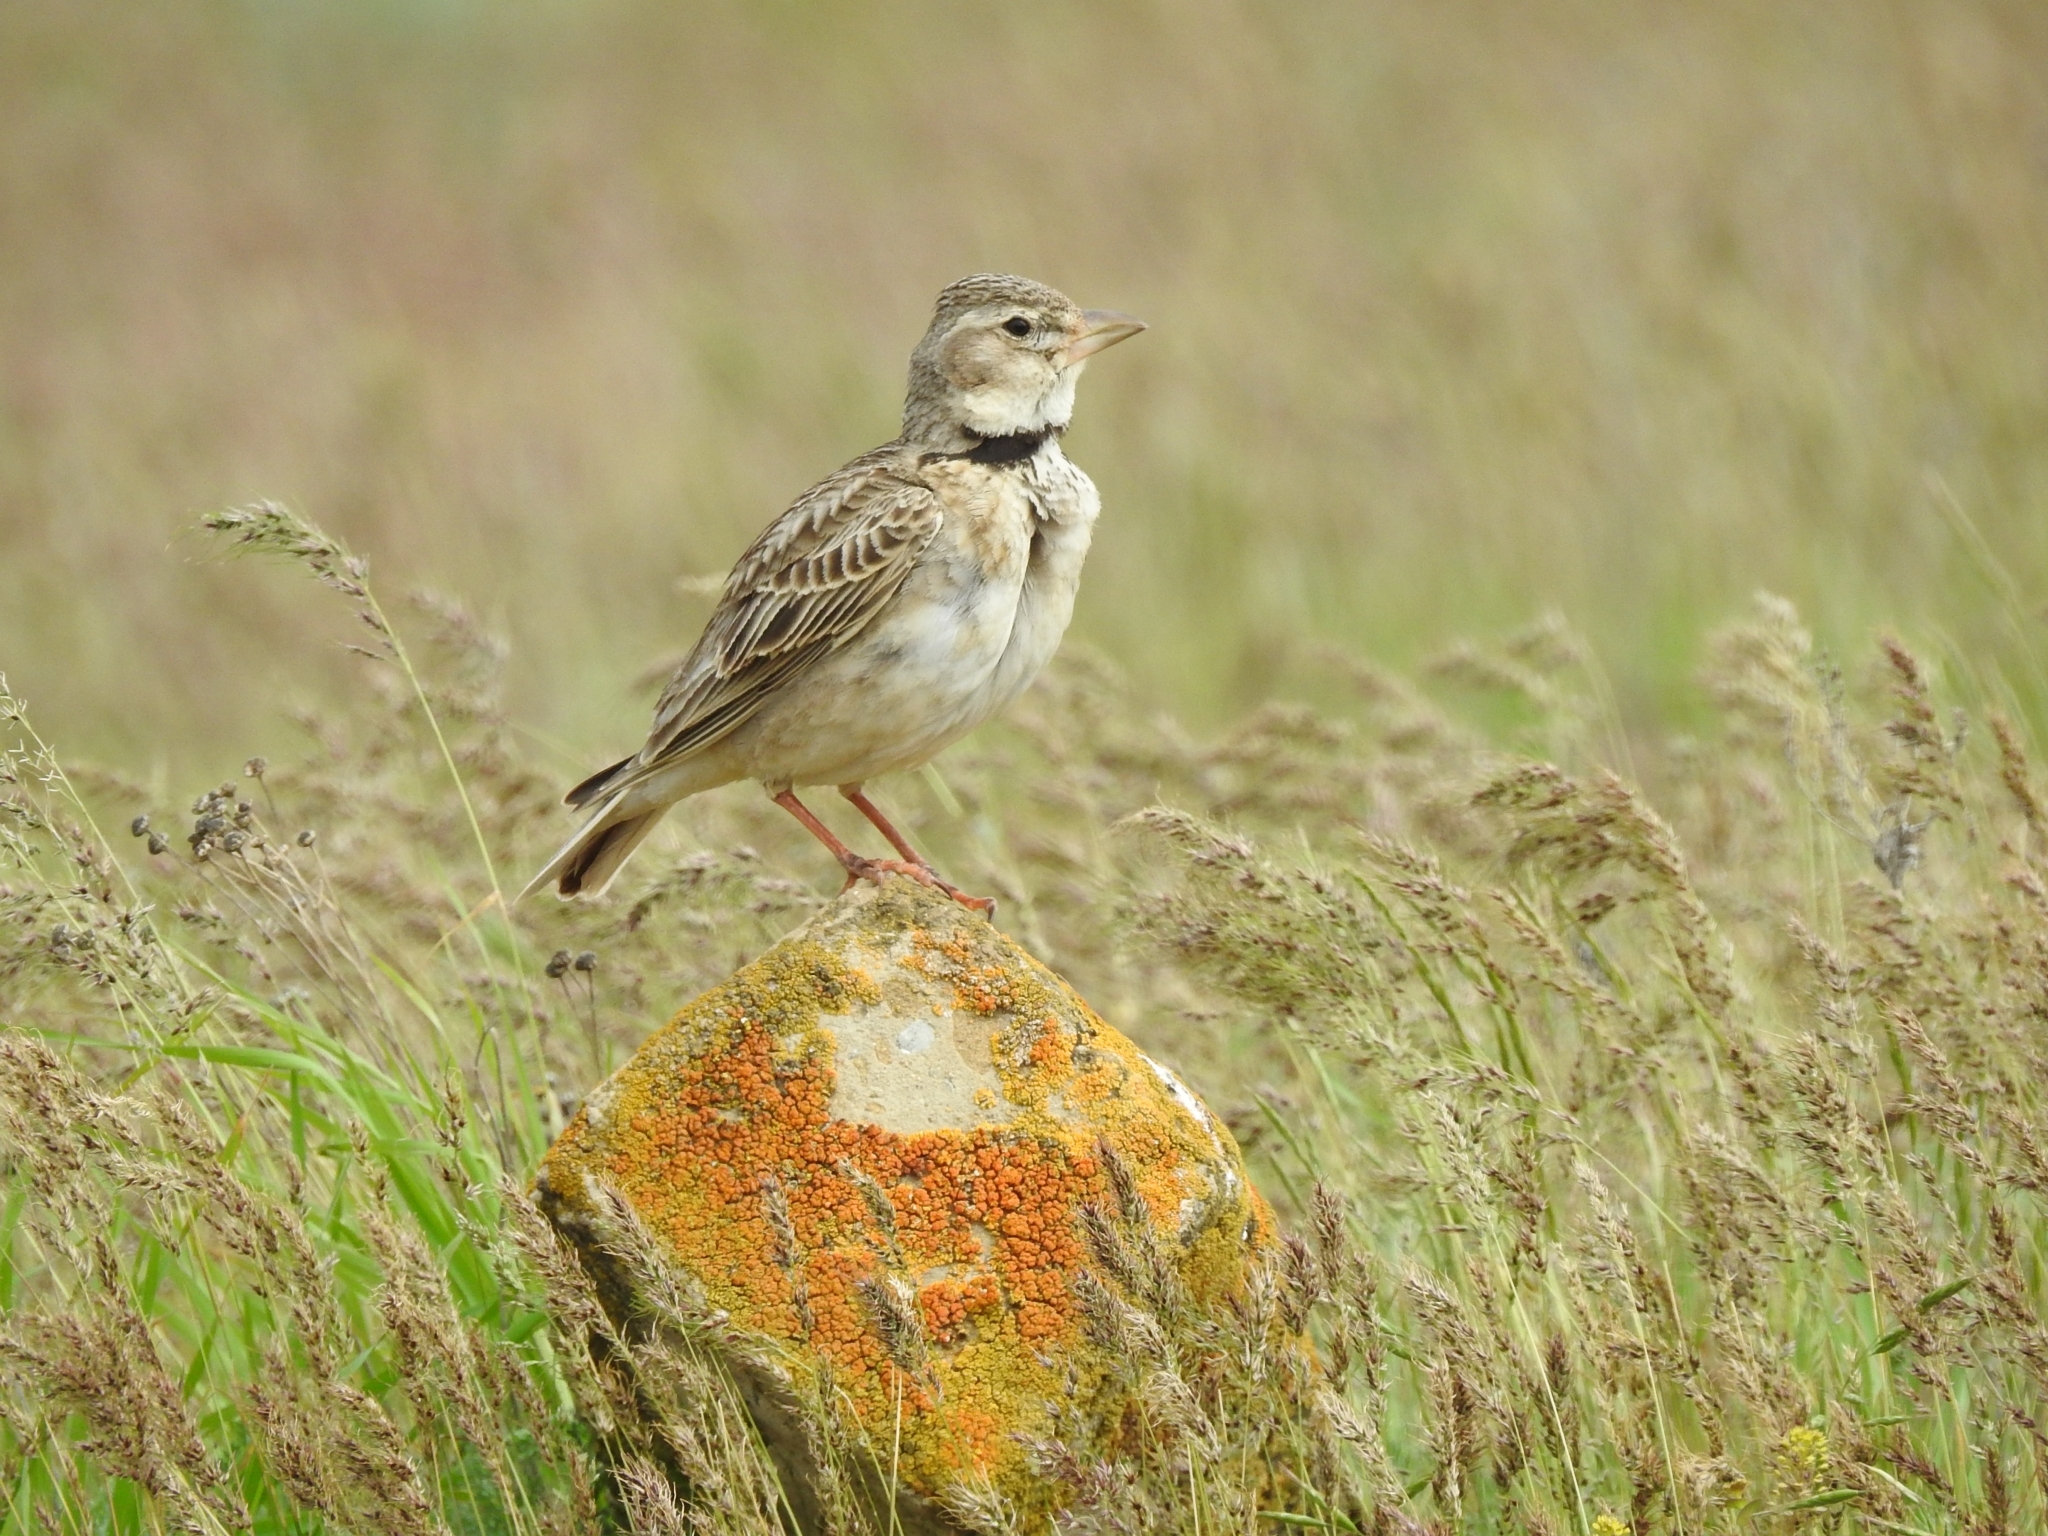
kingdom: Animalia
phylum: Chordata
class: Aves
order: Passeriformes
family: Alaudidae
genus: Melanocorypha
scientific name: Melanocorypha calandra
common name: Calandra lark
